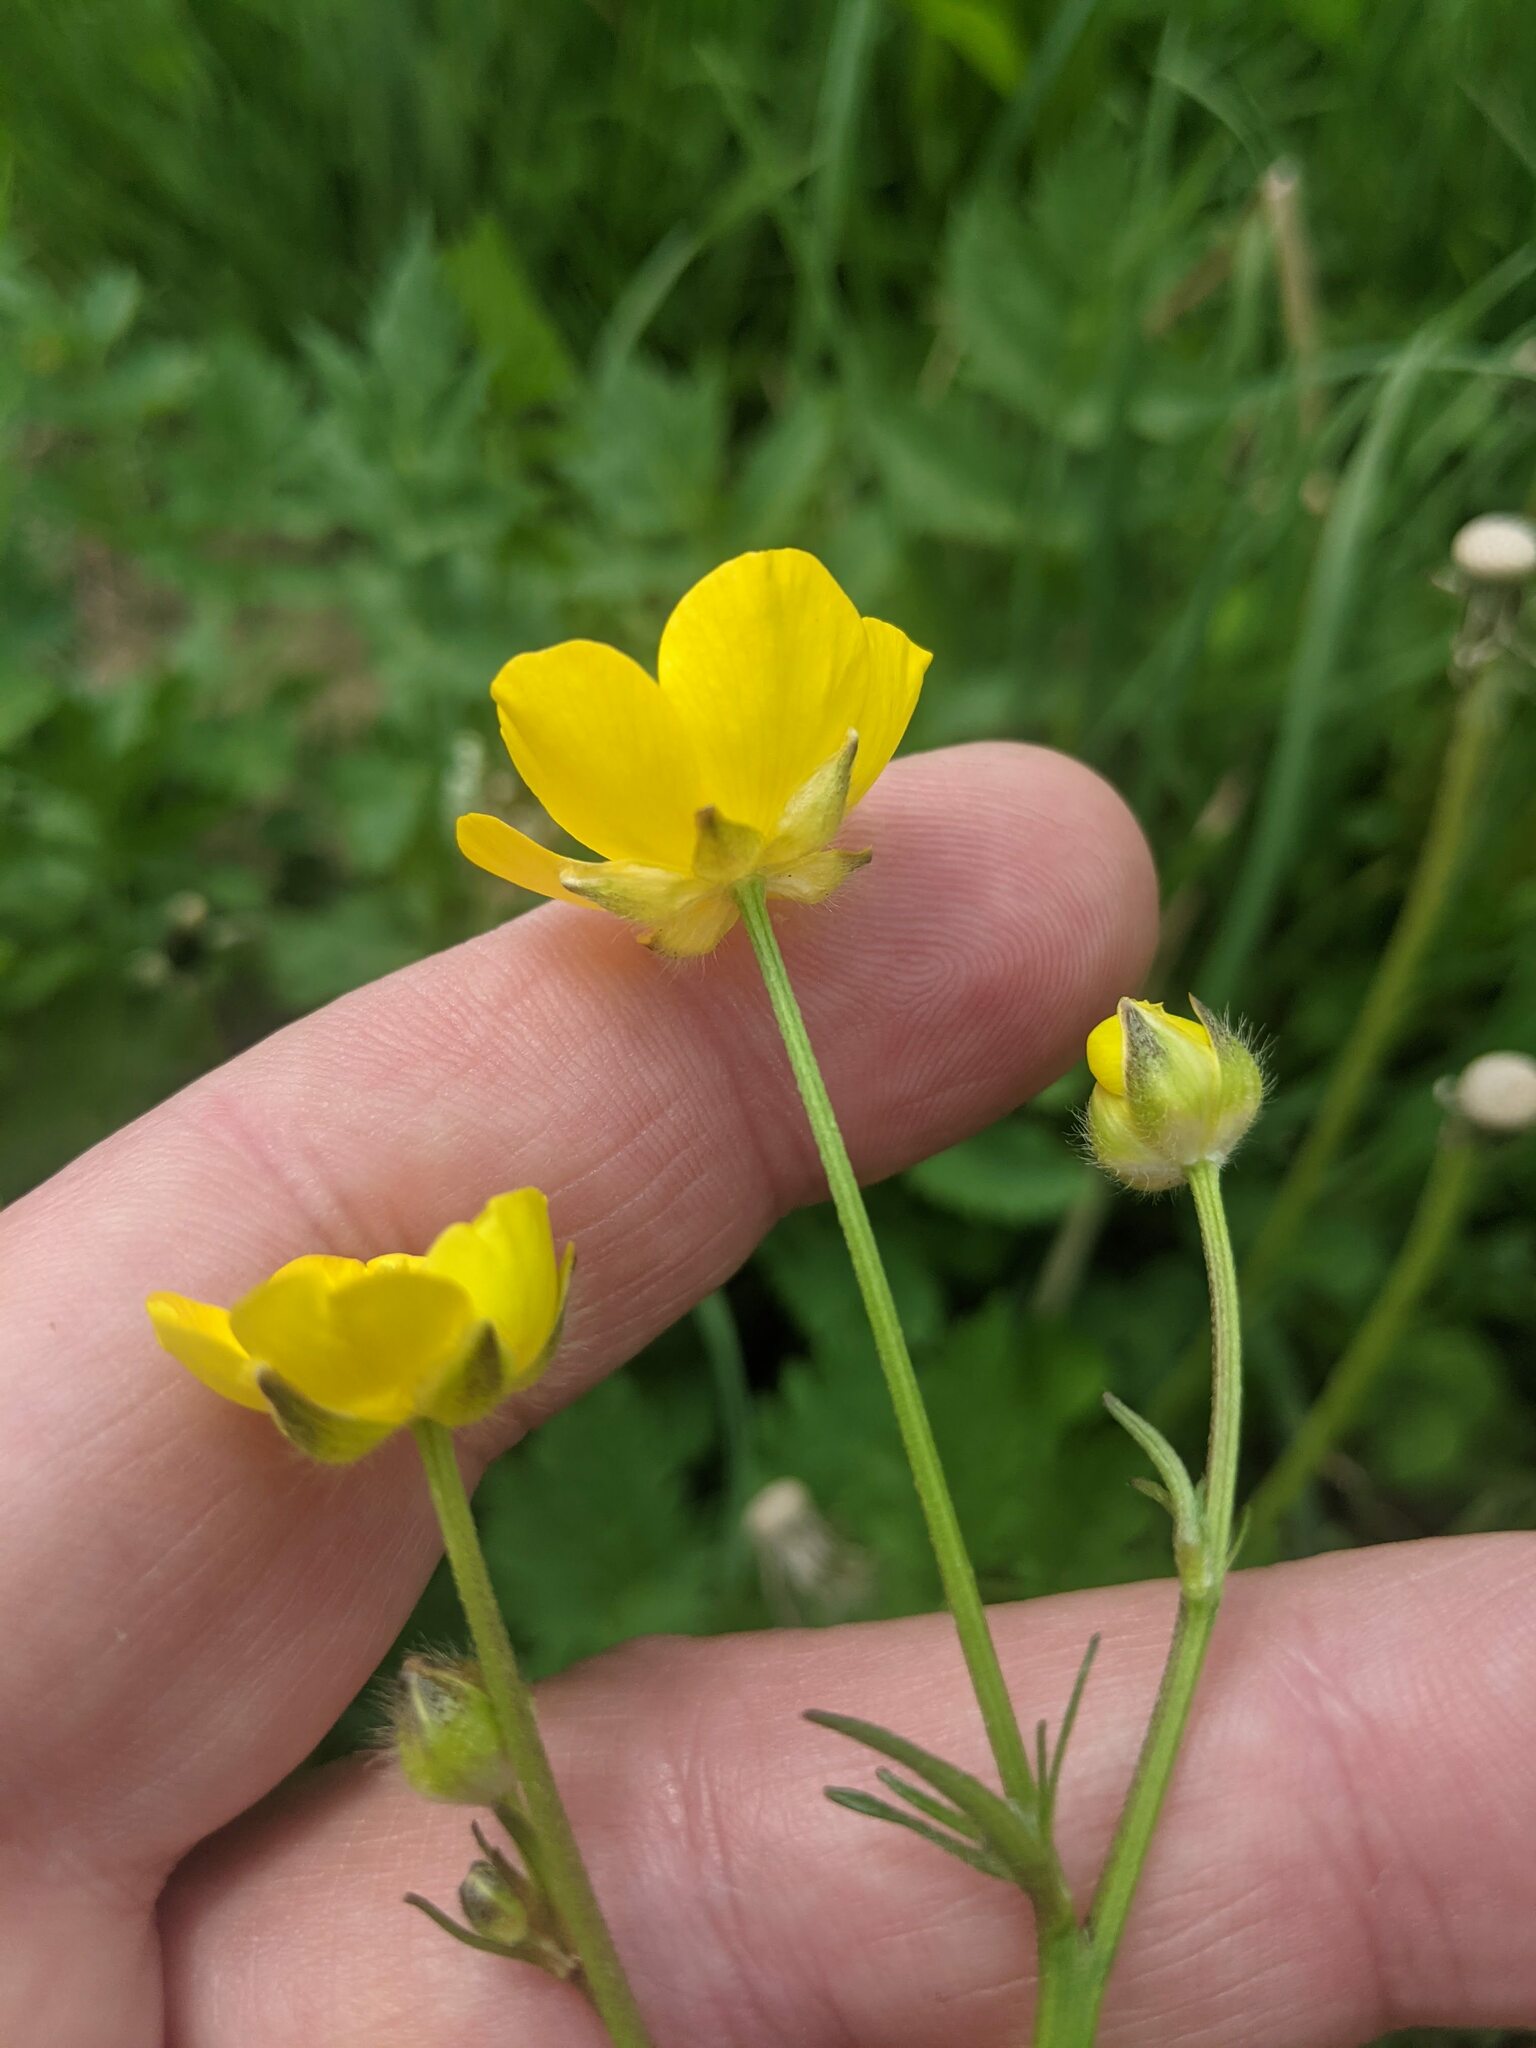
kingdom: Plantae
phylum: Tracheophyta
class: Magnoliopsida
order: Ranunculales
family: Ranunculaceae
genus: Ranunculus
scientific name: Ranunculus bulbosus
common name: Bulbous buttercup
